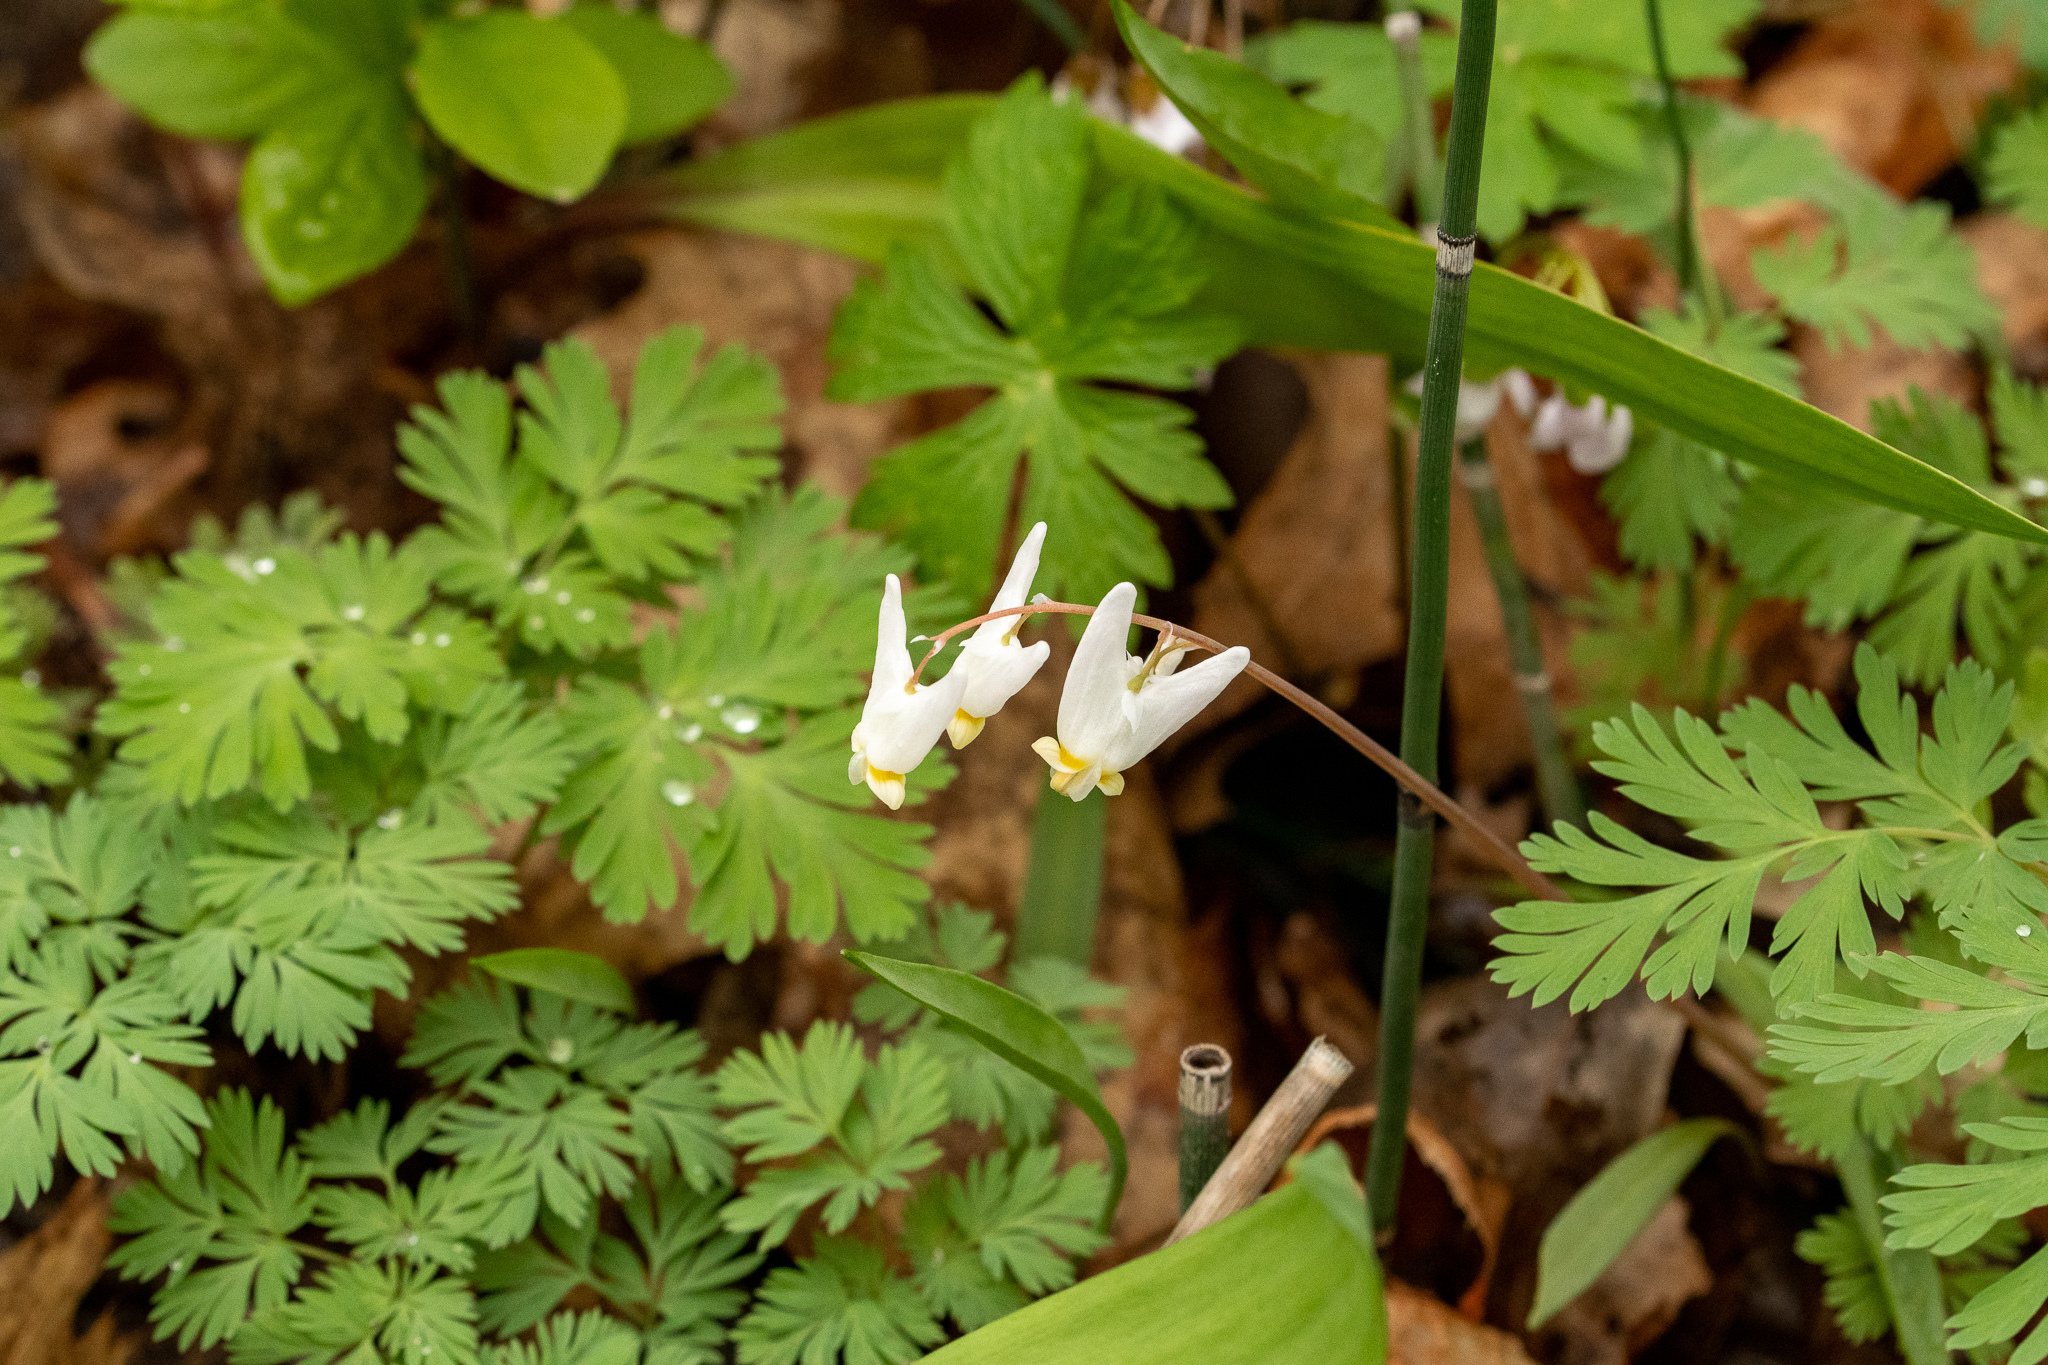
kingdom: Plantae
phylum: Tracheophyta
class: Magnoliopsida
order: Ranunculales
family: Papaveraceae
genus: Dicentra
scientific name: Dicentra cucullaria
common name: Dutchman's breeches
